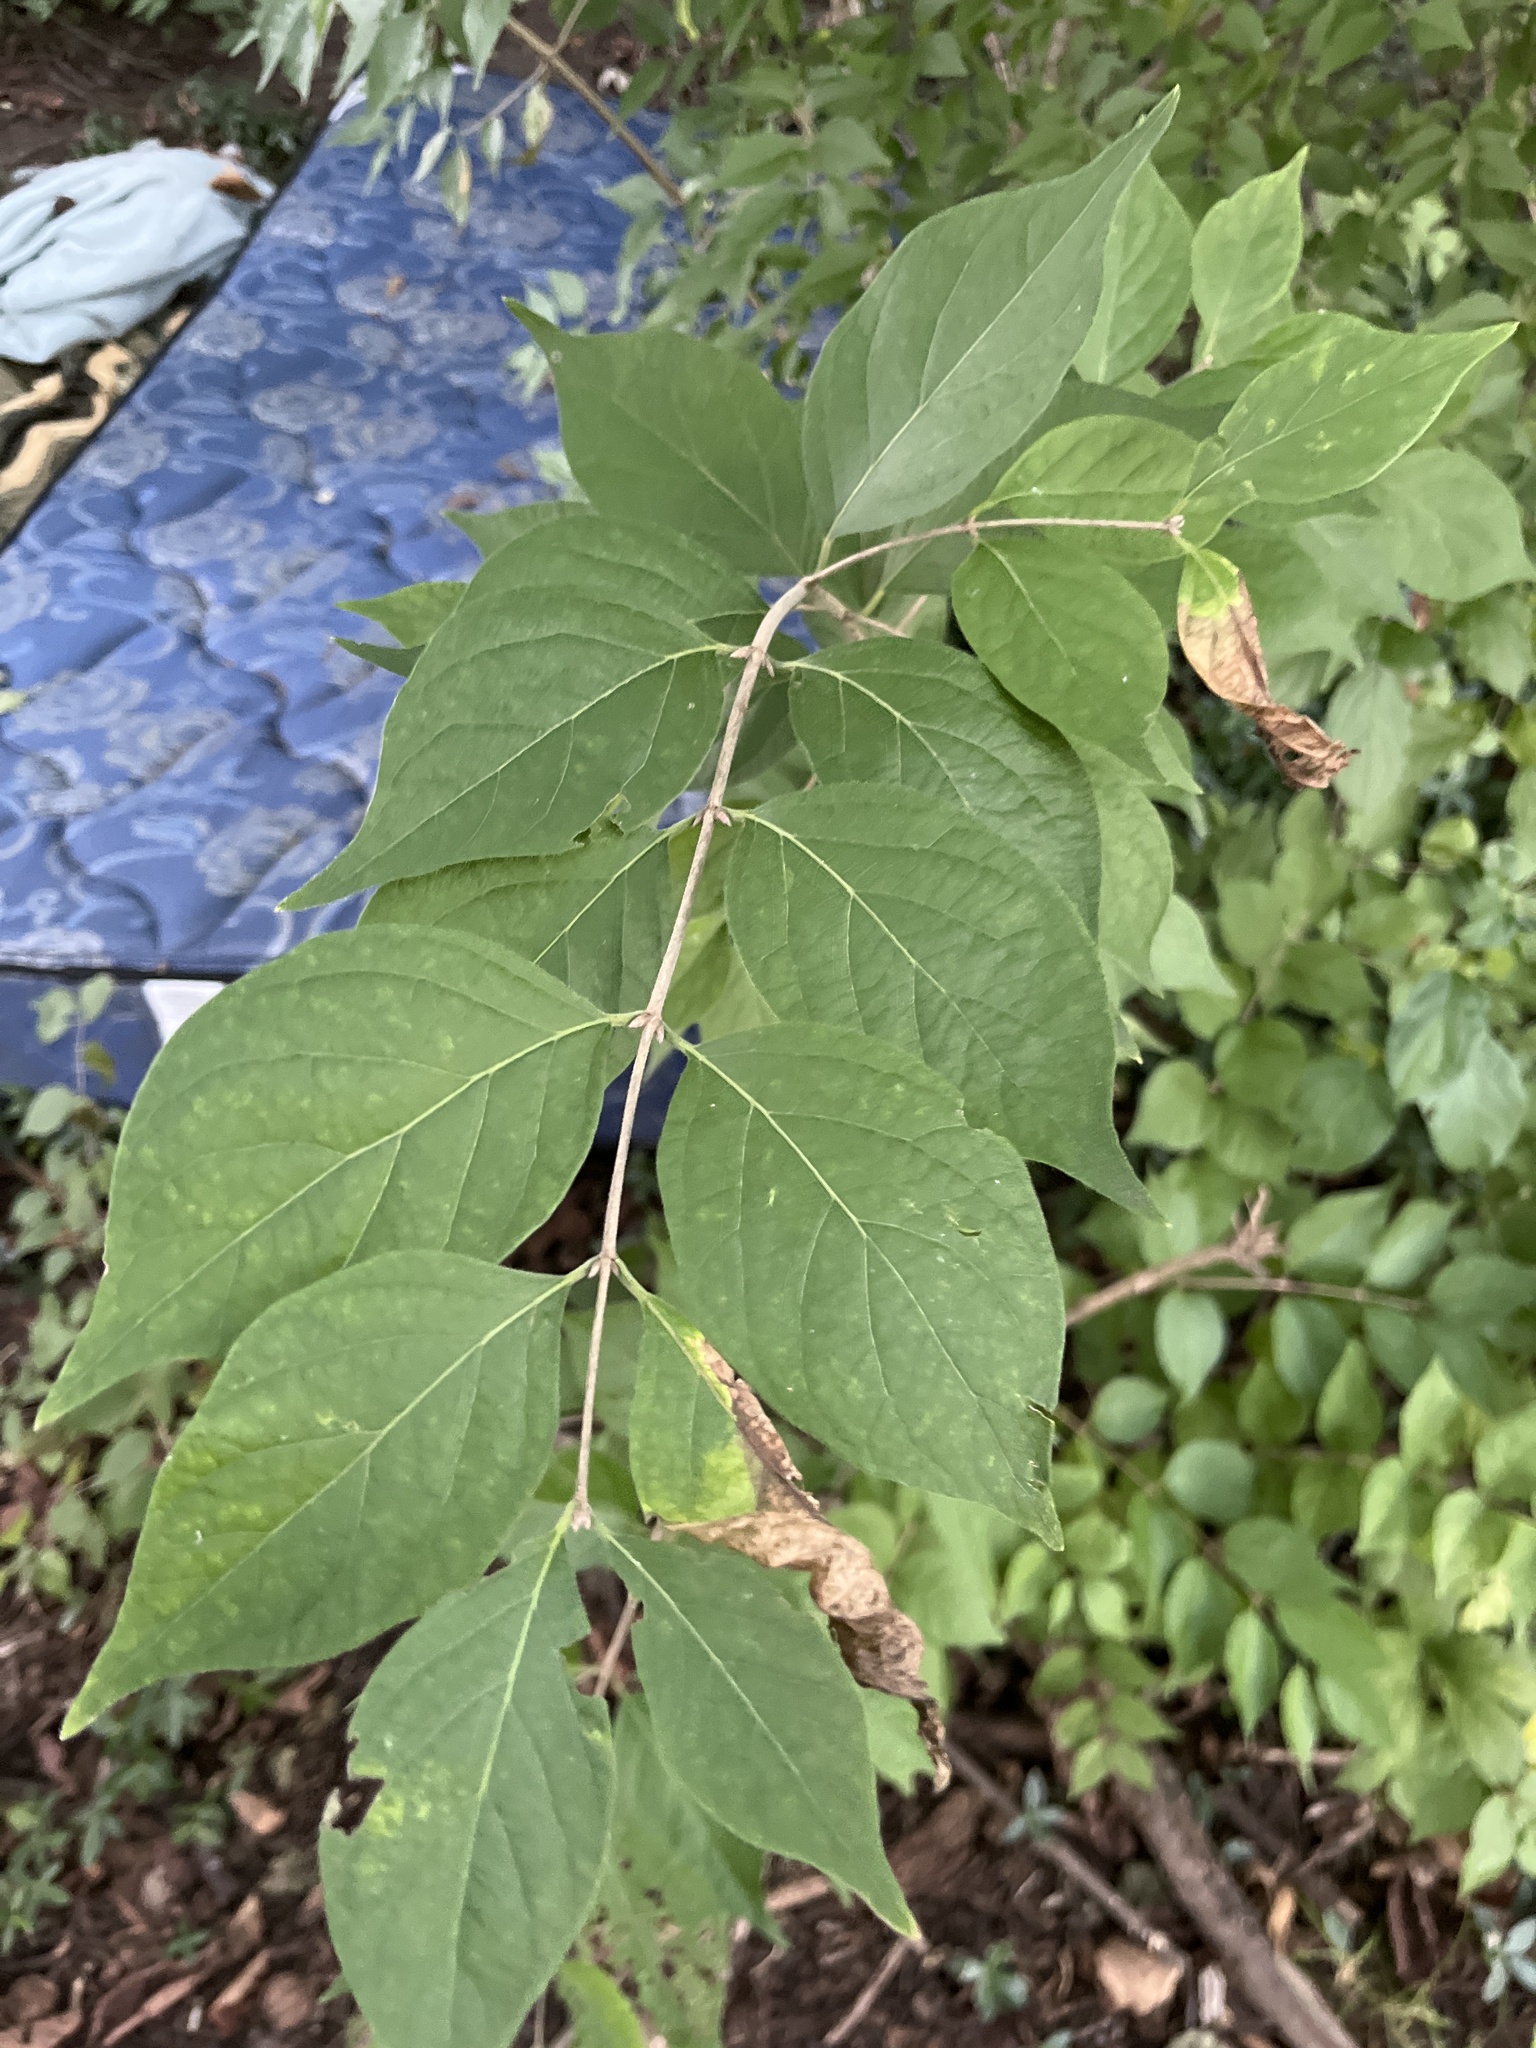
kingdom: Plantae
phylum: Tracheophyta
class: Magnoliopsida
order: Dipsacales
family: Caprifoliaceae
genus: Lonicera
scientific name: Lonicera maackii
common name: Amur honeysuckle
